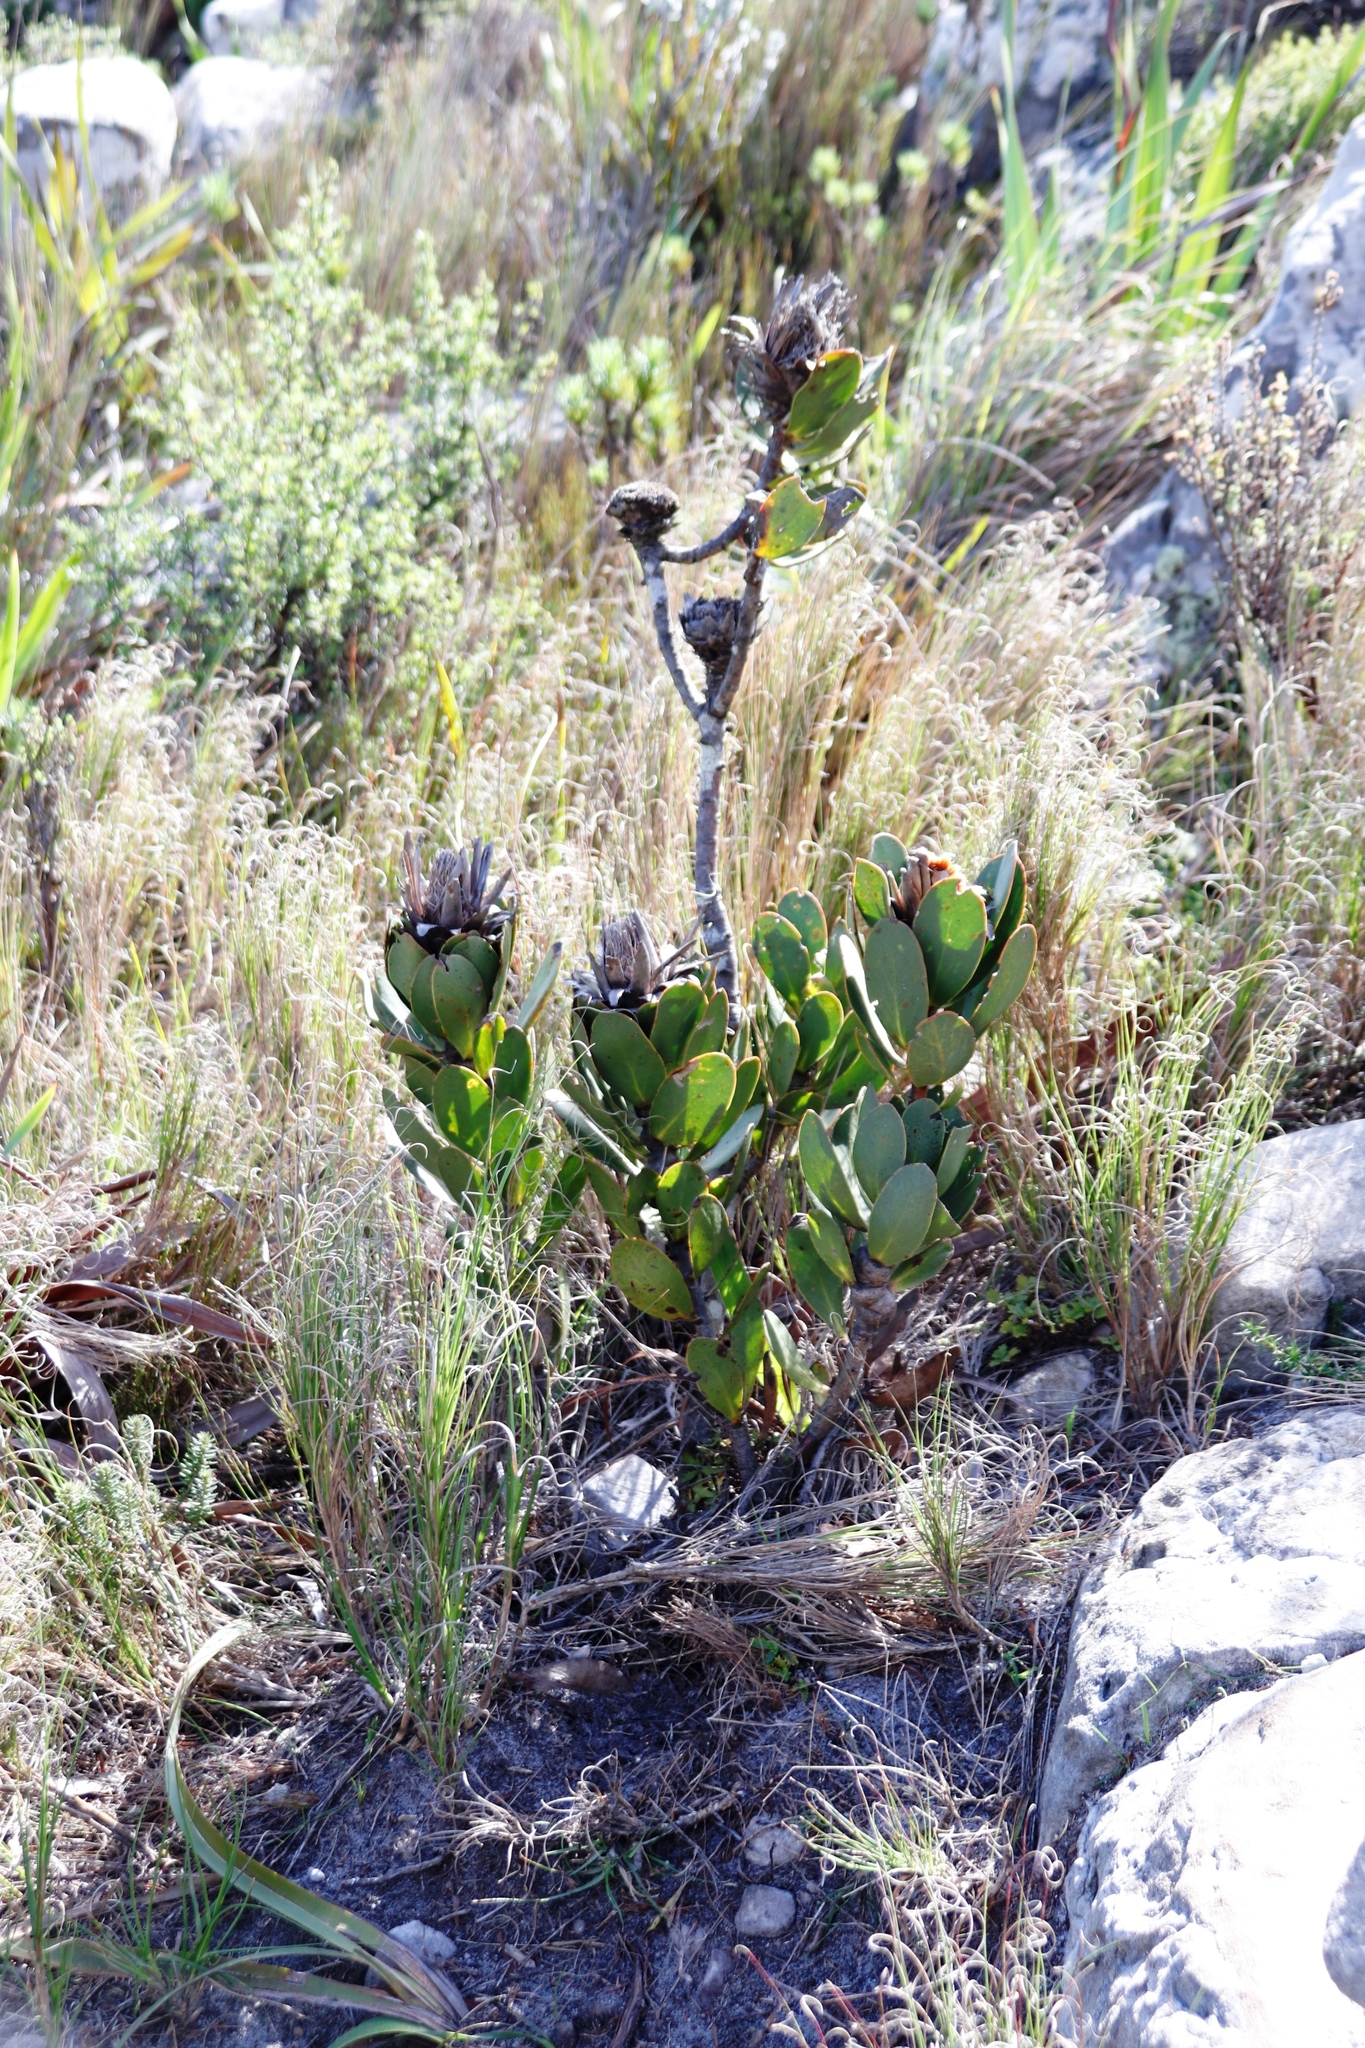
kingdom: Plantae
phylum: Tracheophyta
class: Magnoliopsida
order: Proteales
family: Proteaceae
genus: Protea
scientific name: Protea speciosa
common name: Brown-beard sugarbush
